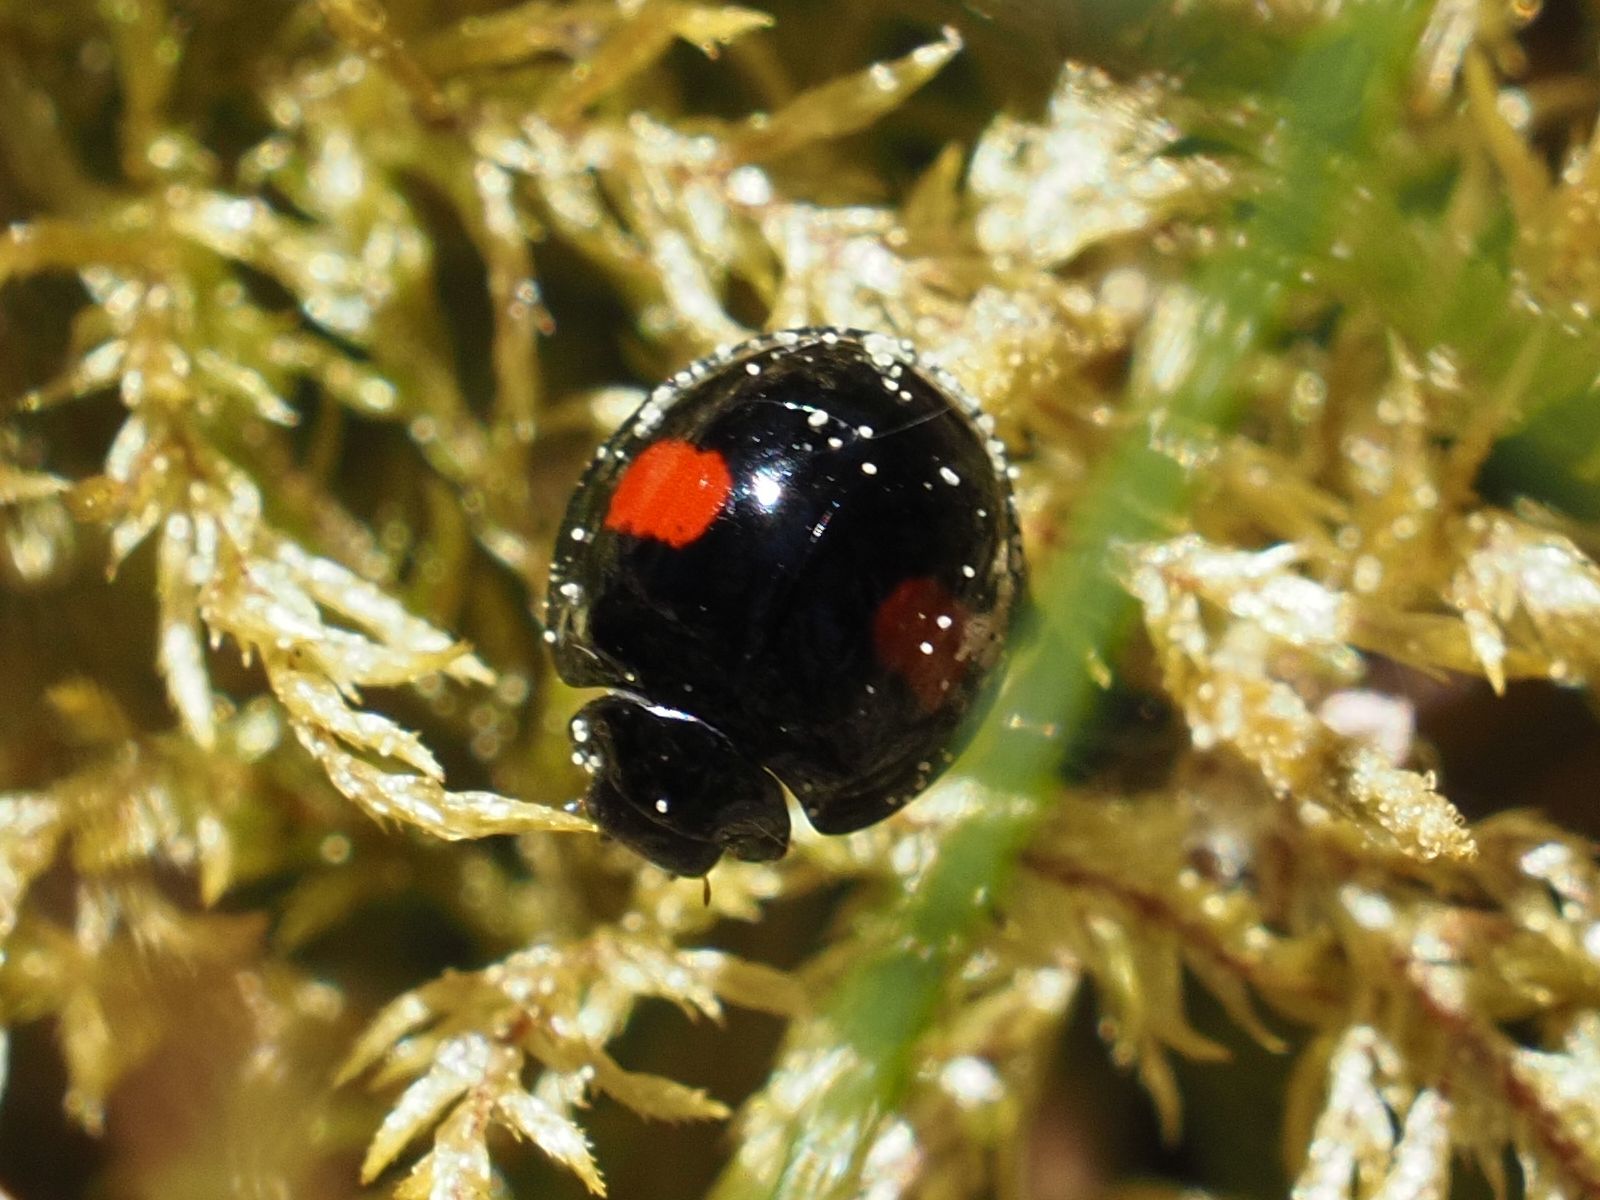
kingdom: Animalia
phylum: Arthropoda
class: Insecta
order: Coleoptera
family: Coccinellidae
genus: Chilocorus
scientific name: Chilocorus renipustulatus
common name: Kidney-spot ladybird
